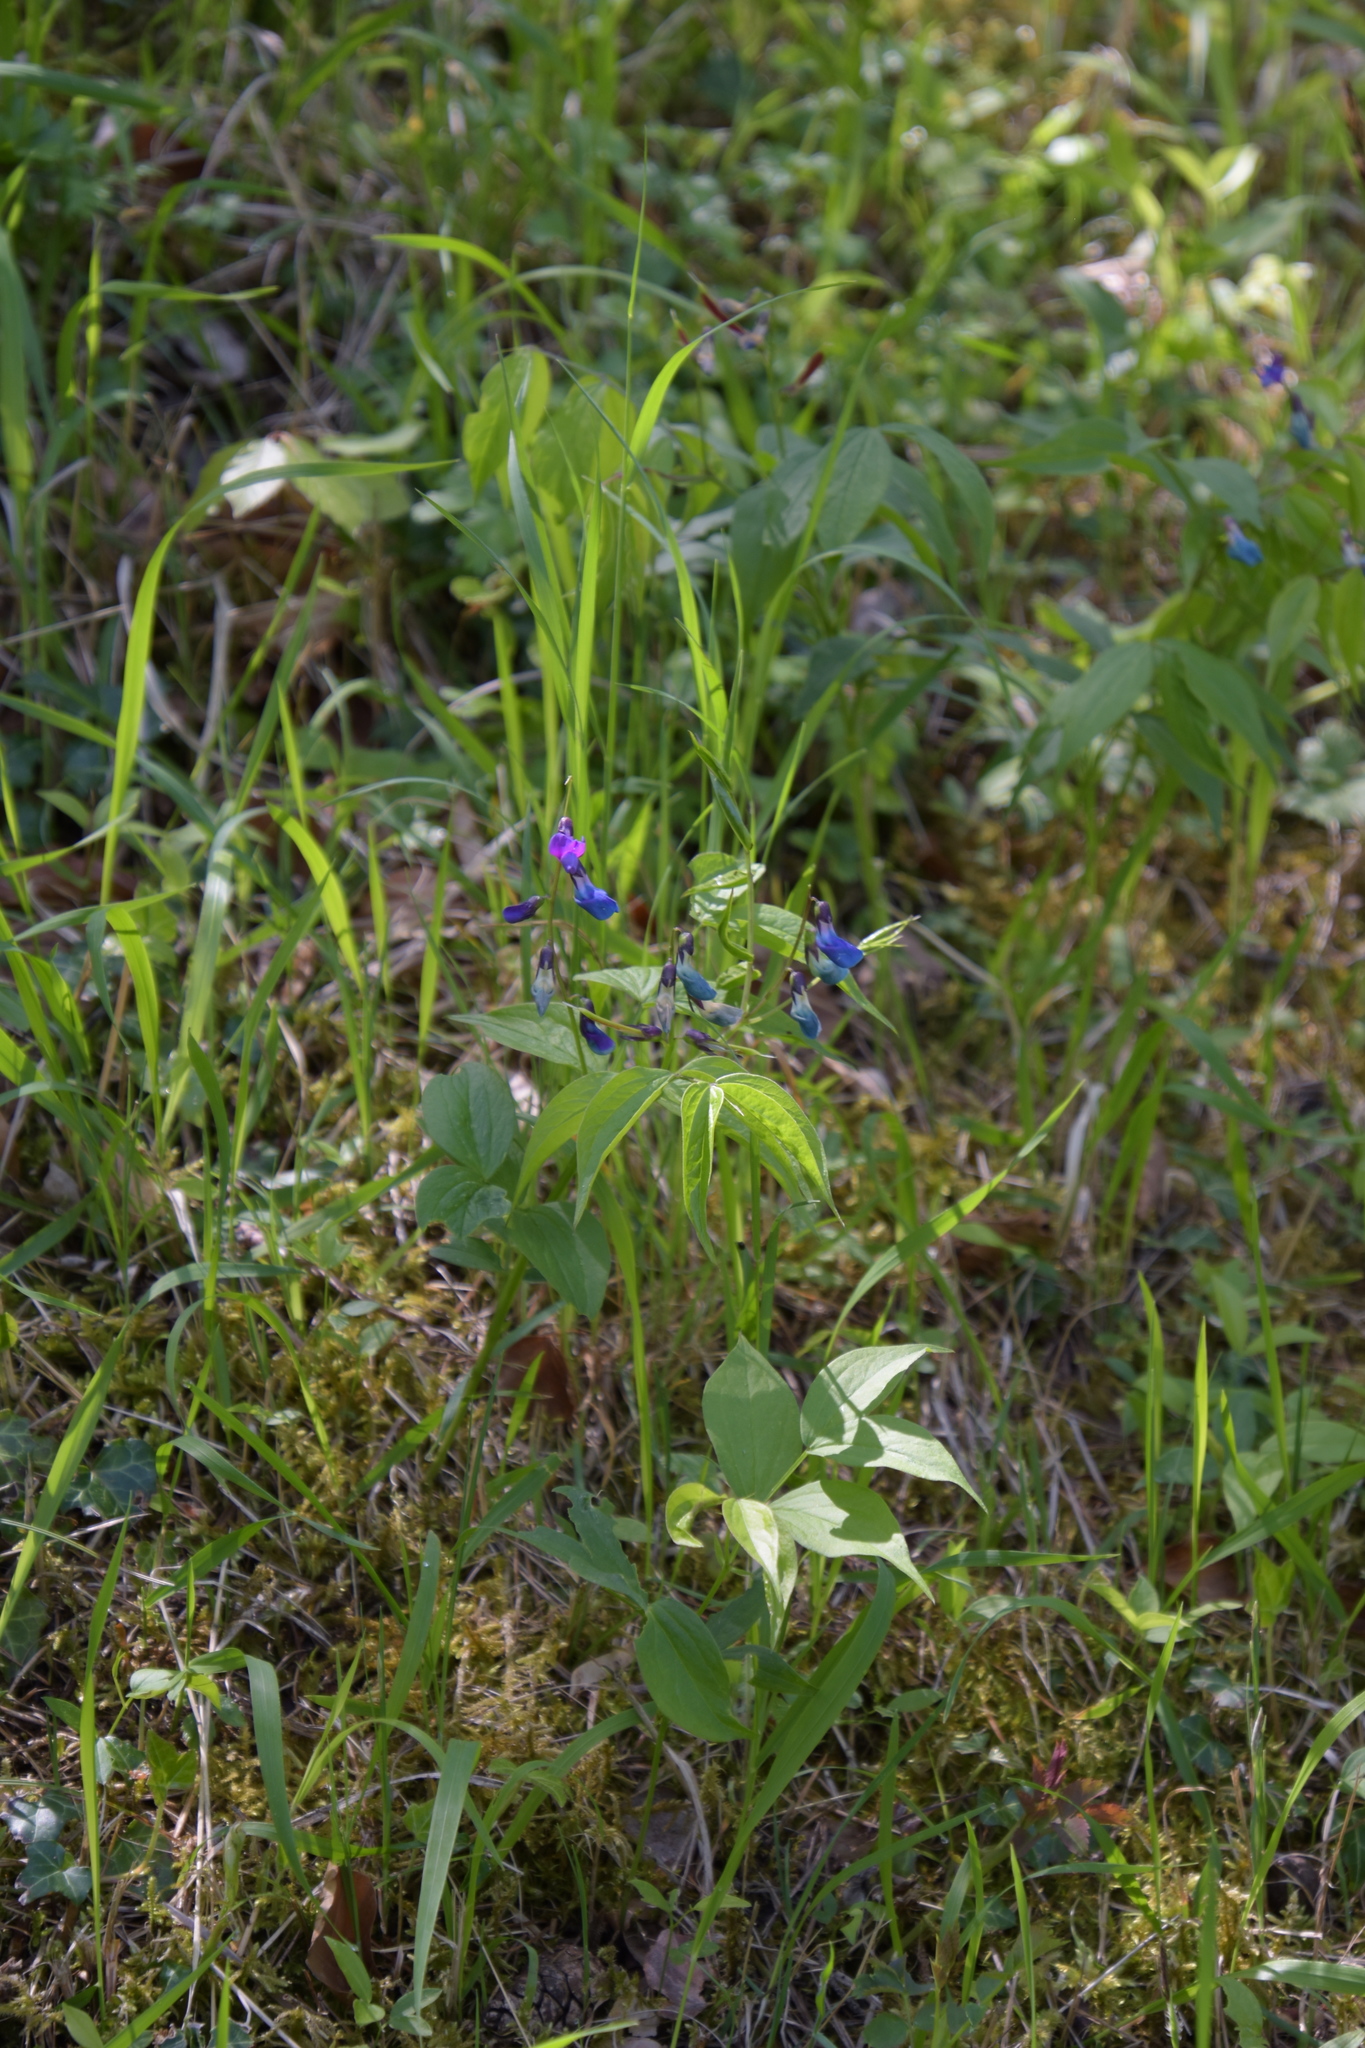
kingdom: Plantae
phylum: Tracheophyta
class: Magnoliopsida
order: Fabales
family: Fabaceae
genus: Lathyrus
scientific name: Lathyrus vernus
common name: Spring pea
